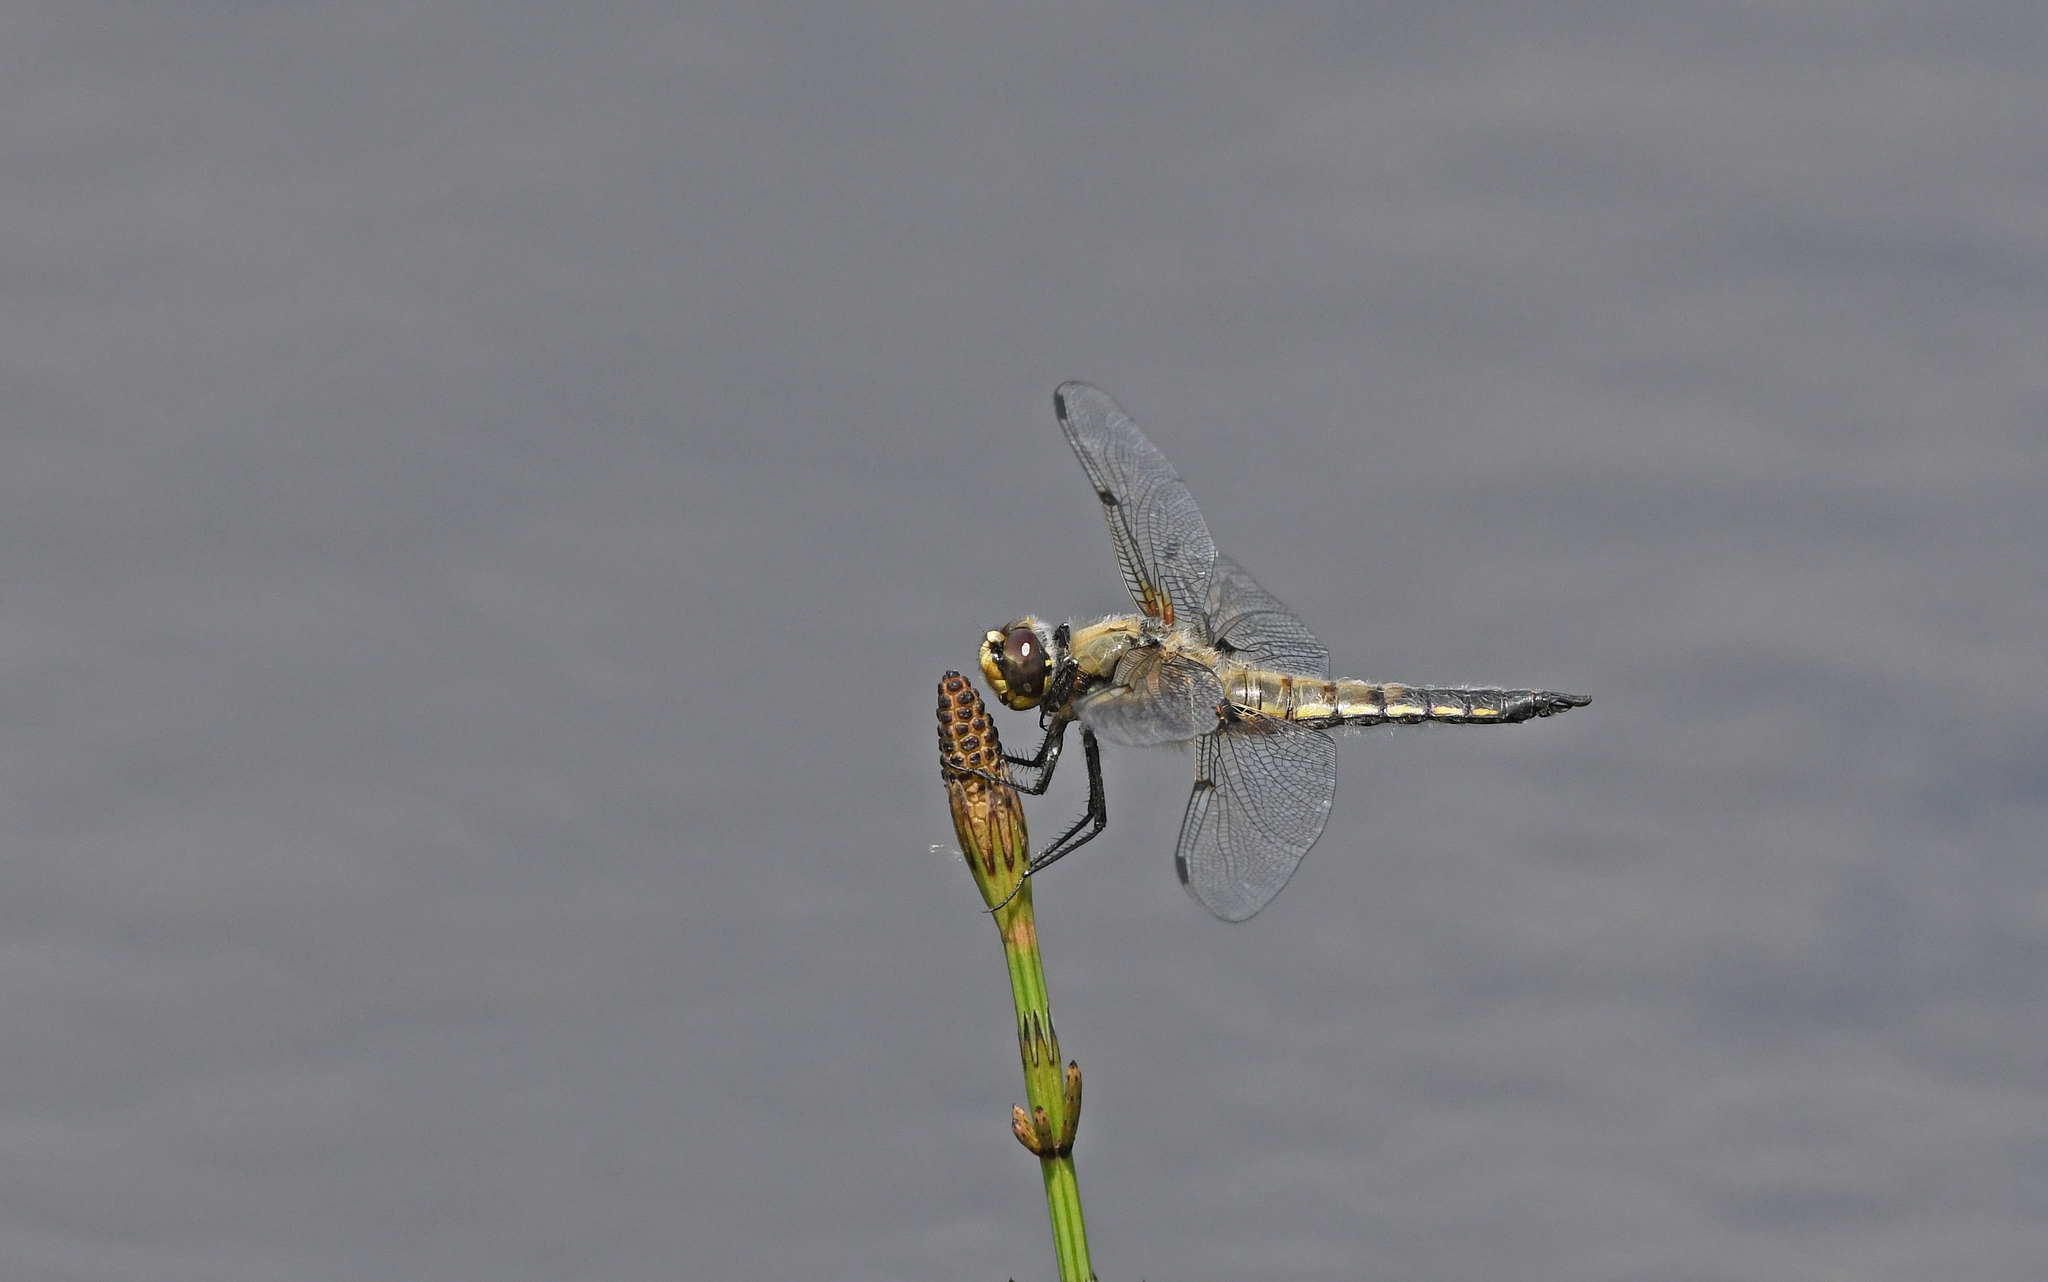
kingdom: Animalia
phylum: Arthropoda
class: Insecta
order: Odonata
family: Libellulidae
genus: Libellula
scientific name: Libellula quadrimaculata
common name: Four-spotted chaser
